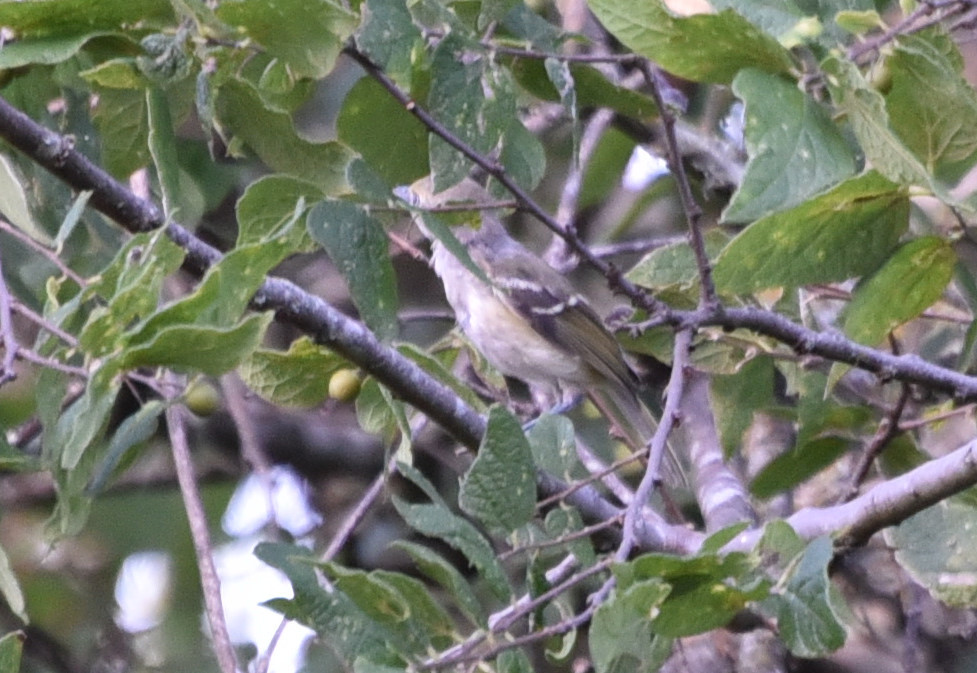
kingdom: Animalia
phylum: Chordata
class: Aves
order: Passeriformes
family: Vireonidae
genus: Vireo
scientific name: Vireo griseus
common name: White-eyed vireo
